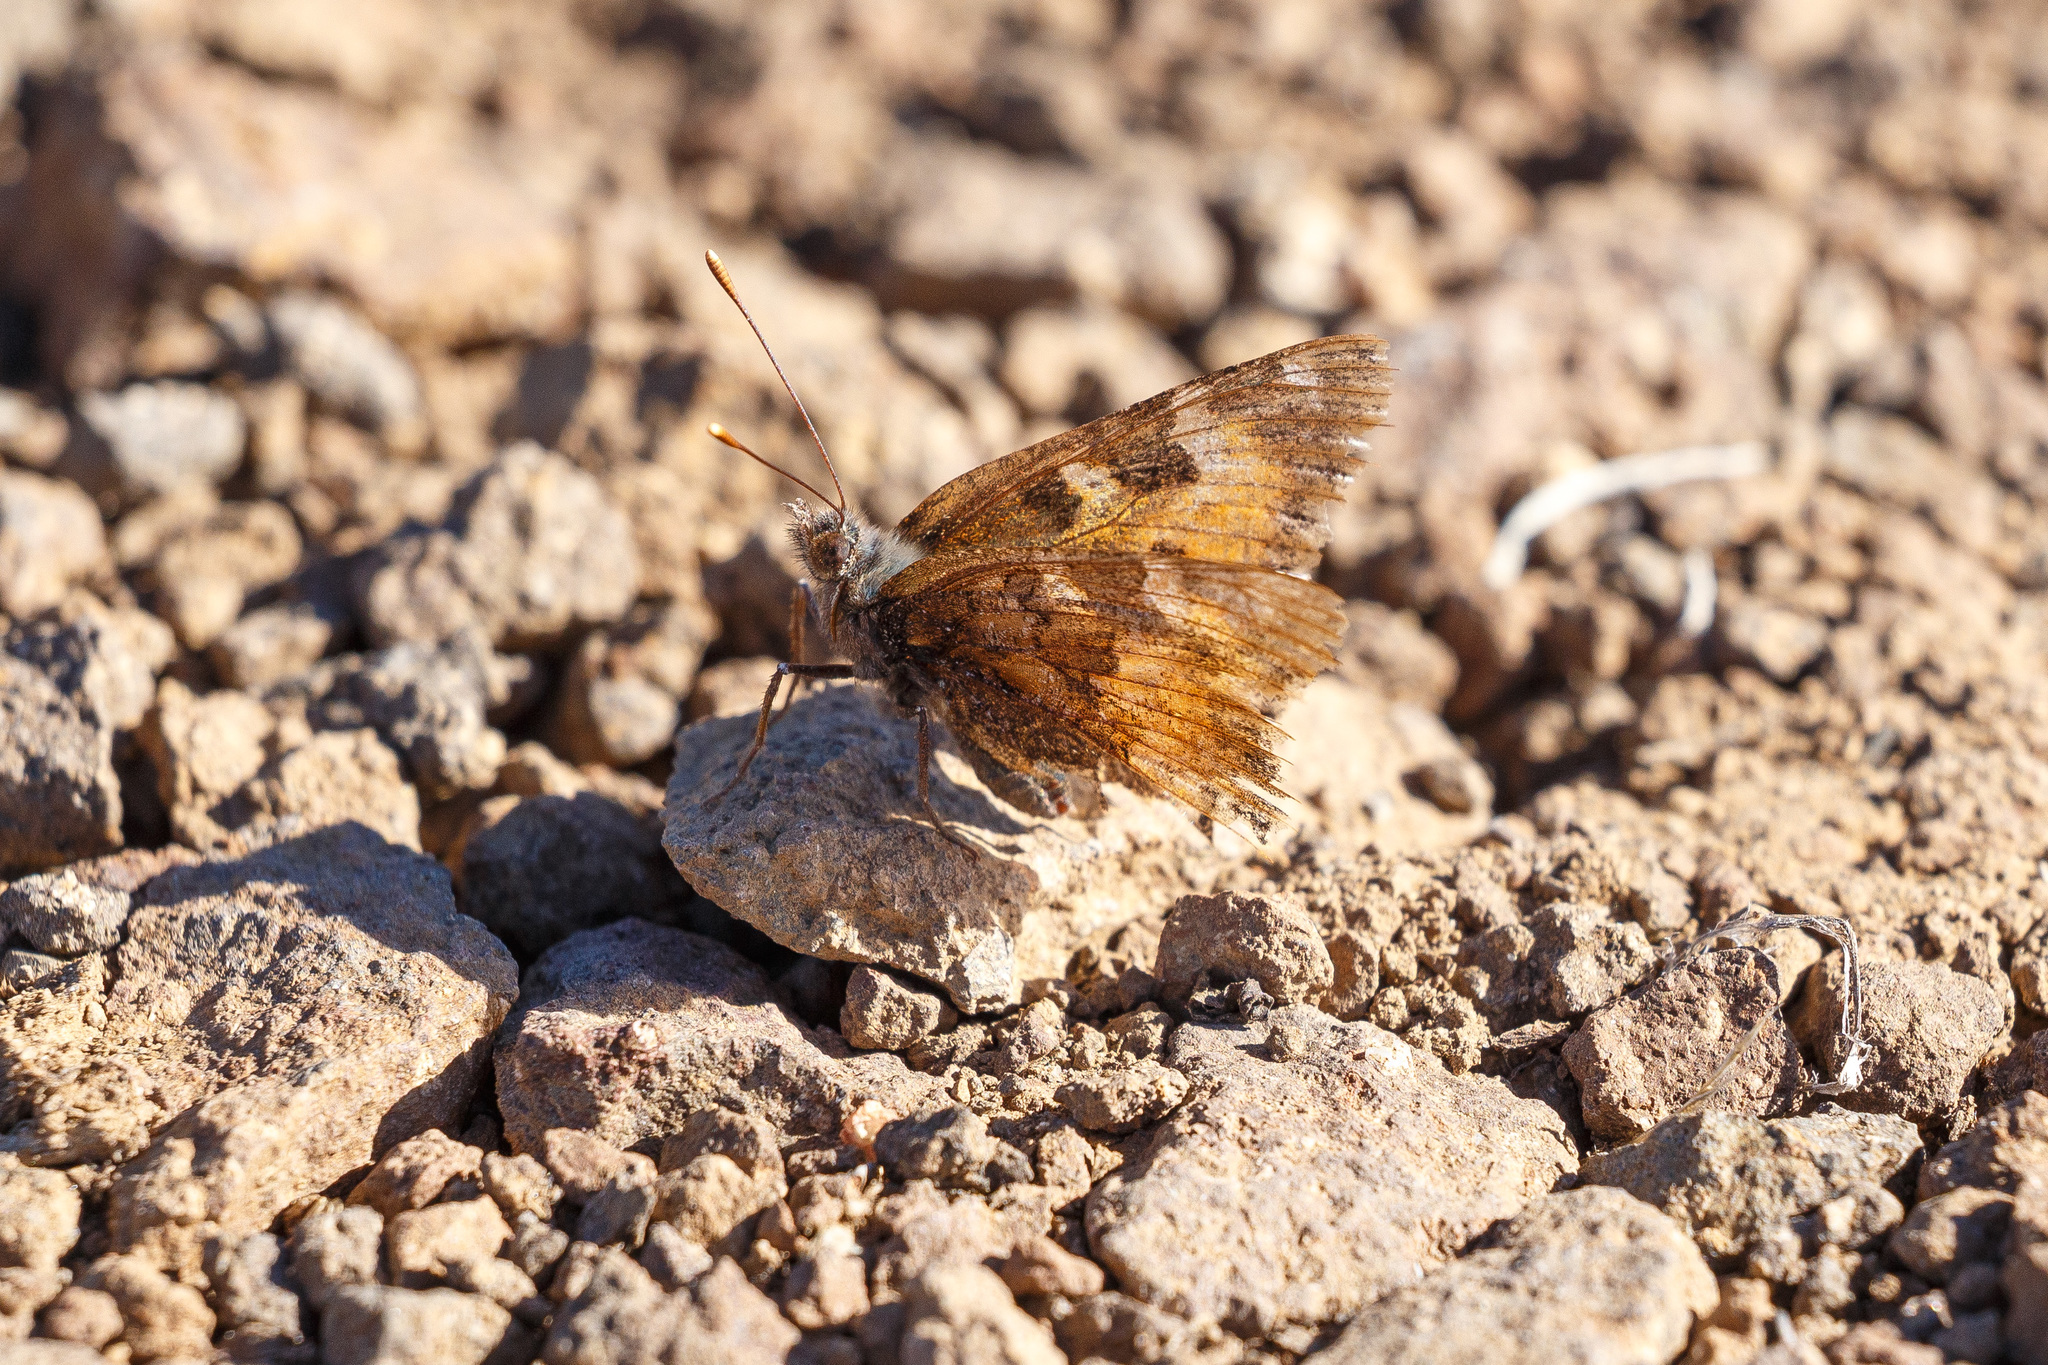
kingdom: Animalia
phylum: Arthropoda
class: Insecta
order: Lepidoptera
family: Nymphalidae
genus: Nymphalis
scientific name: Nymphalis californica
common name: California tortoiseshell
